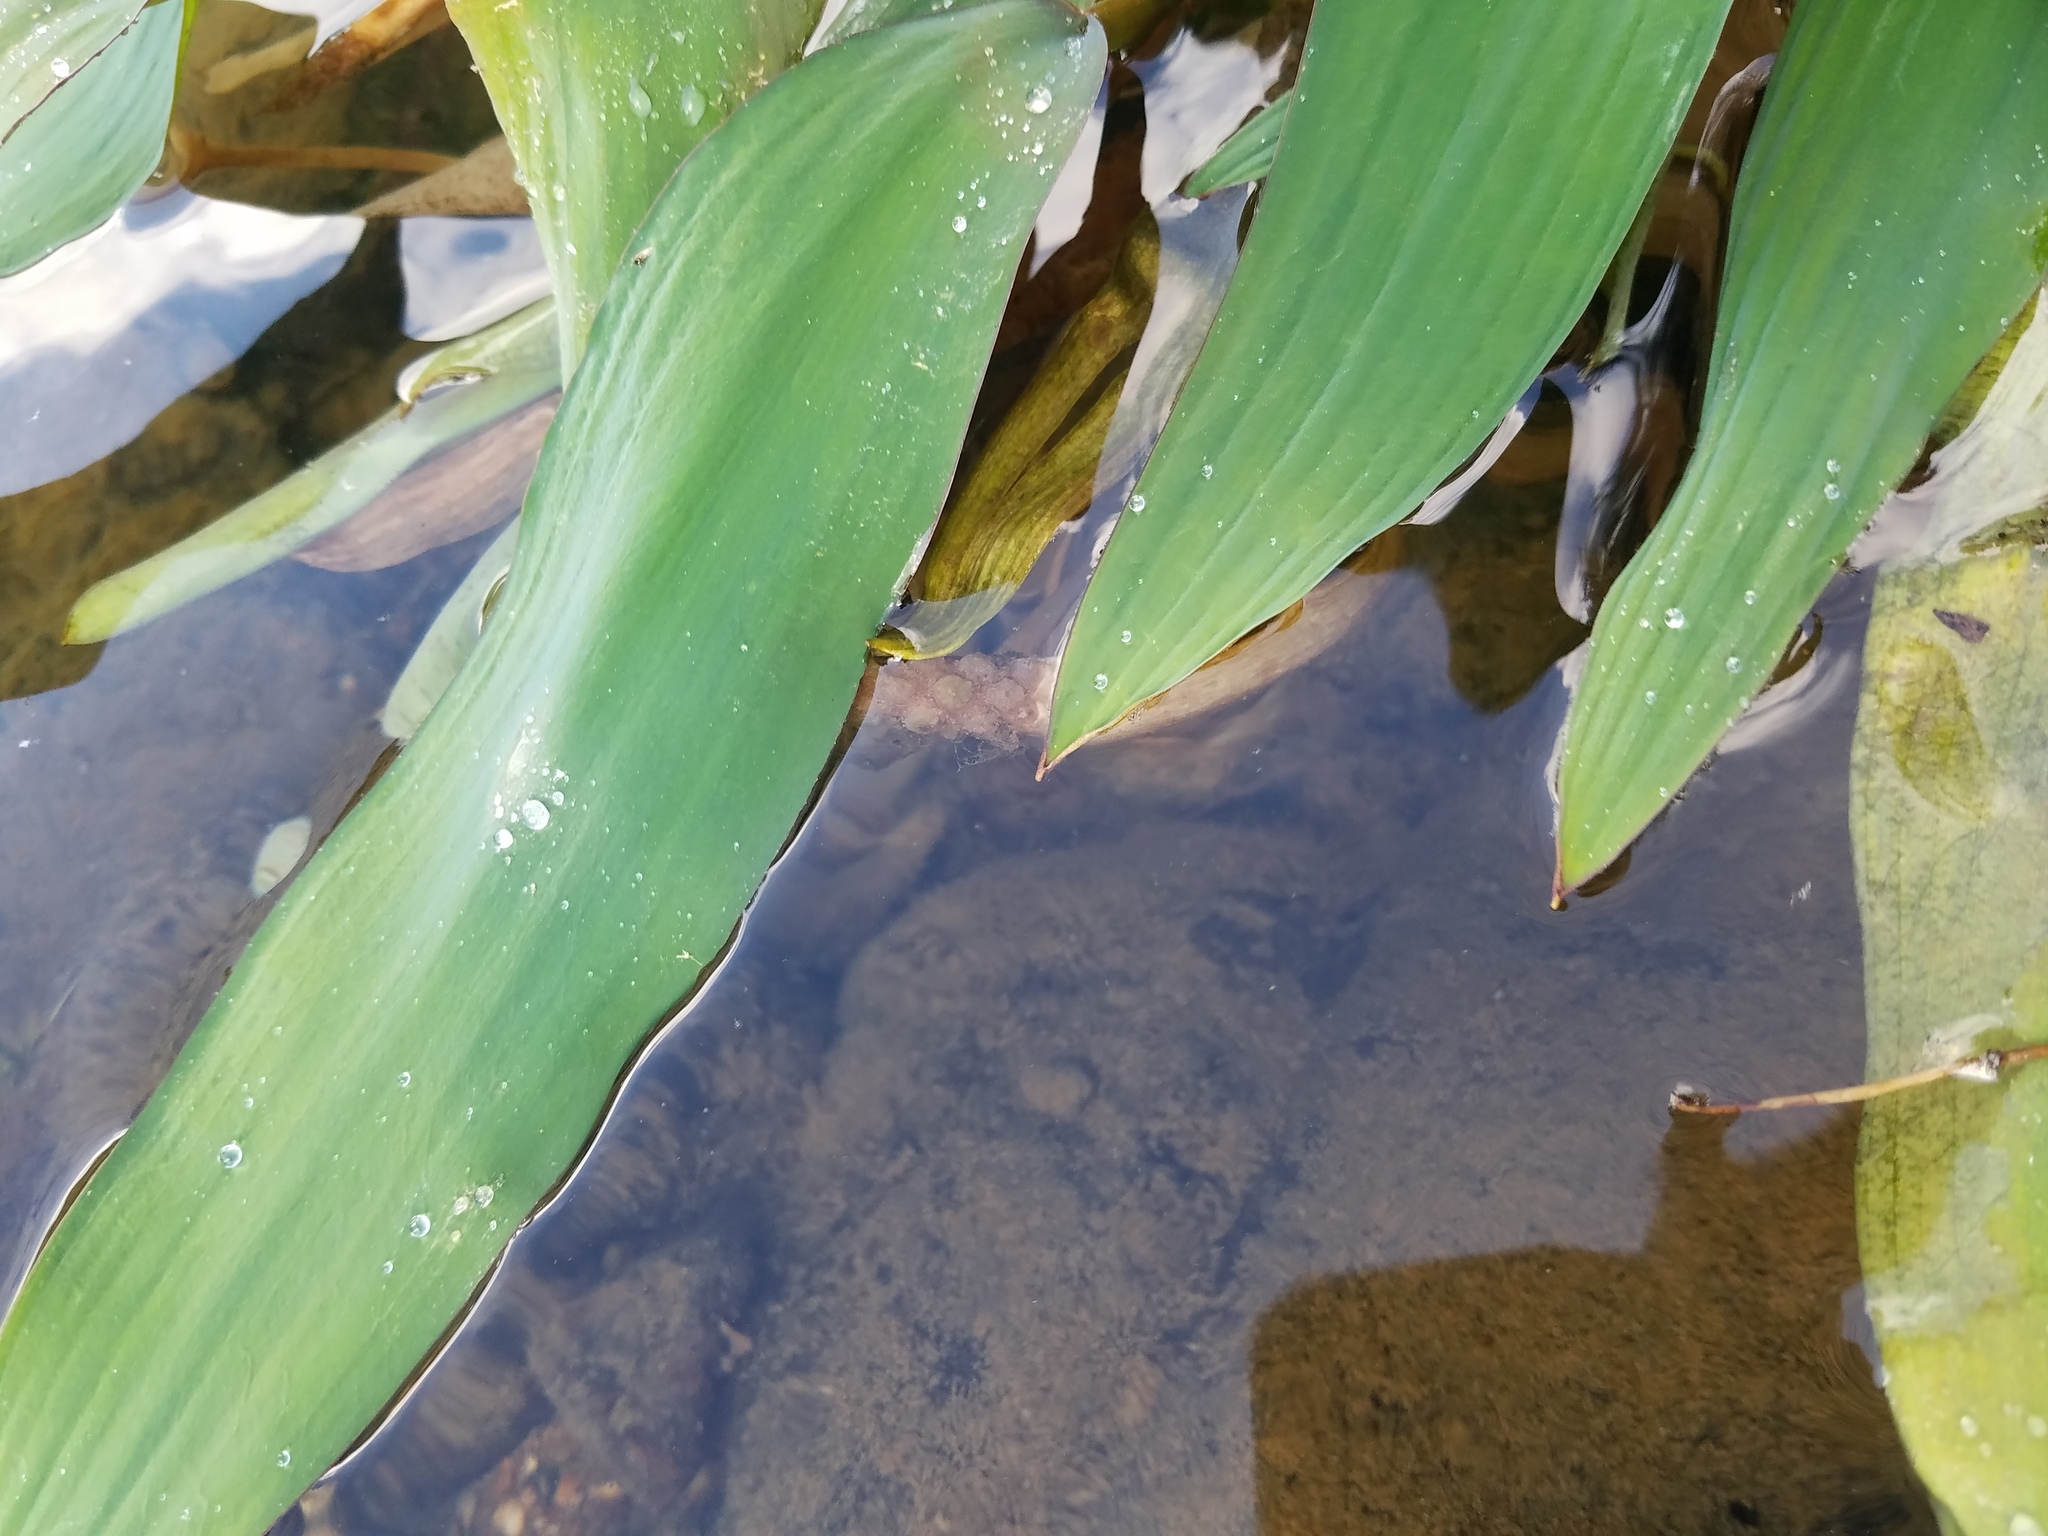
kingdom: Plantae
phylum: Tracheophyta
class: Liliopsida
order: Alismatales
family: Araceae
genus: Orontium
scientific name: Orontium aquaticum
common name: Golden-club
